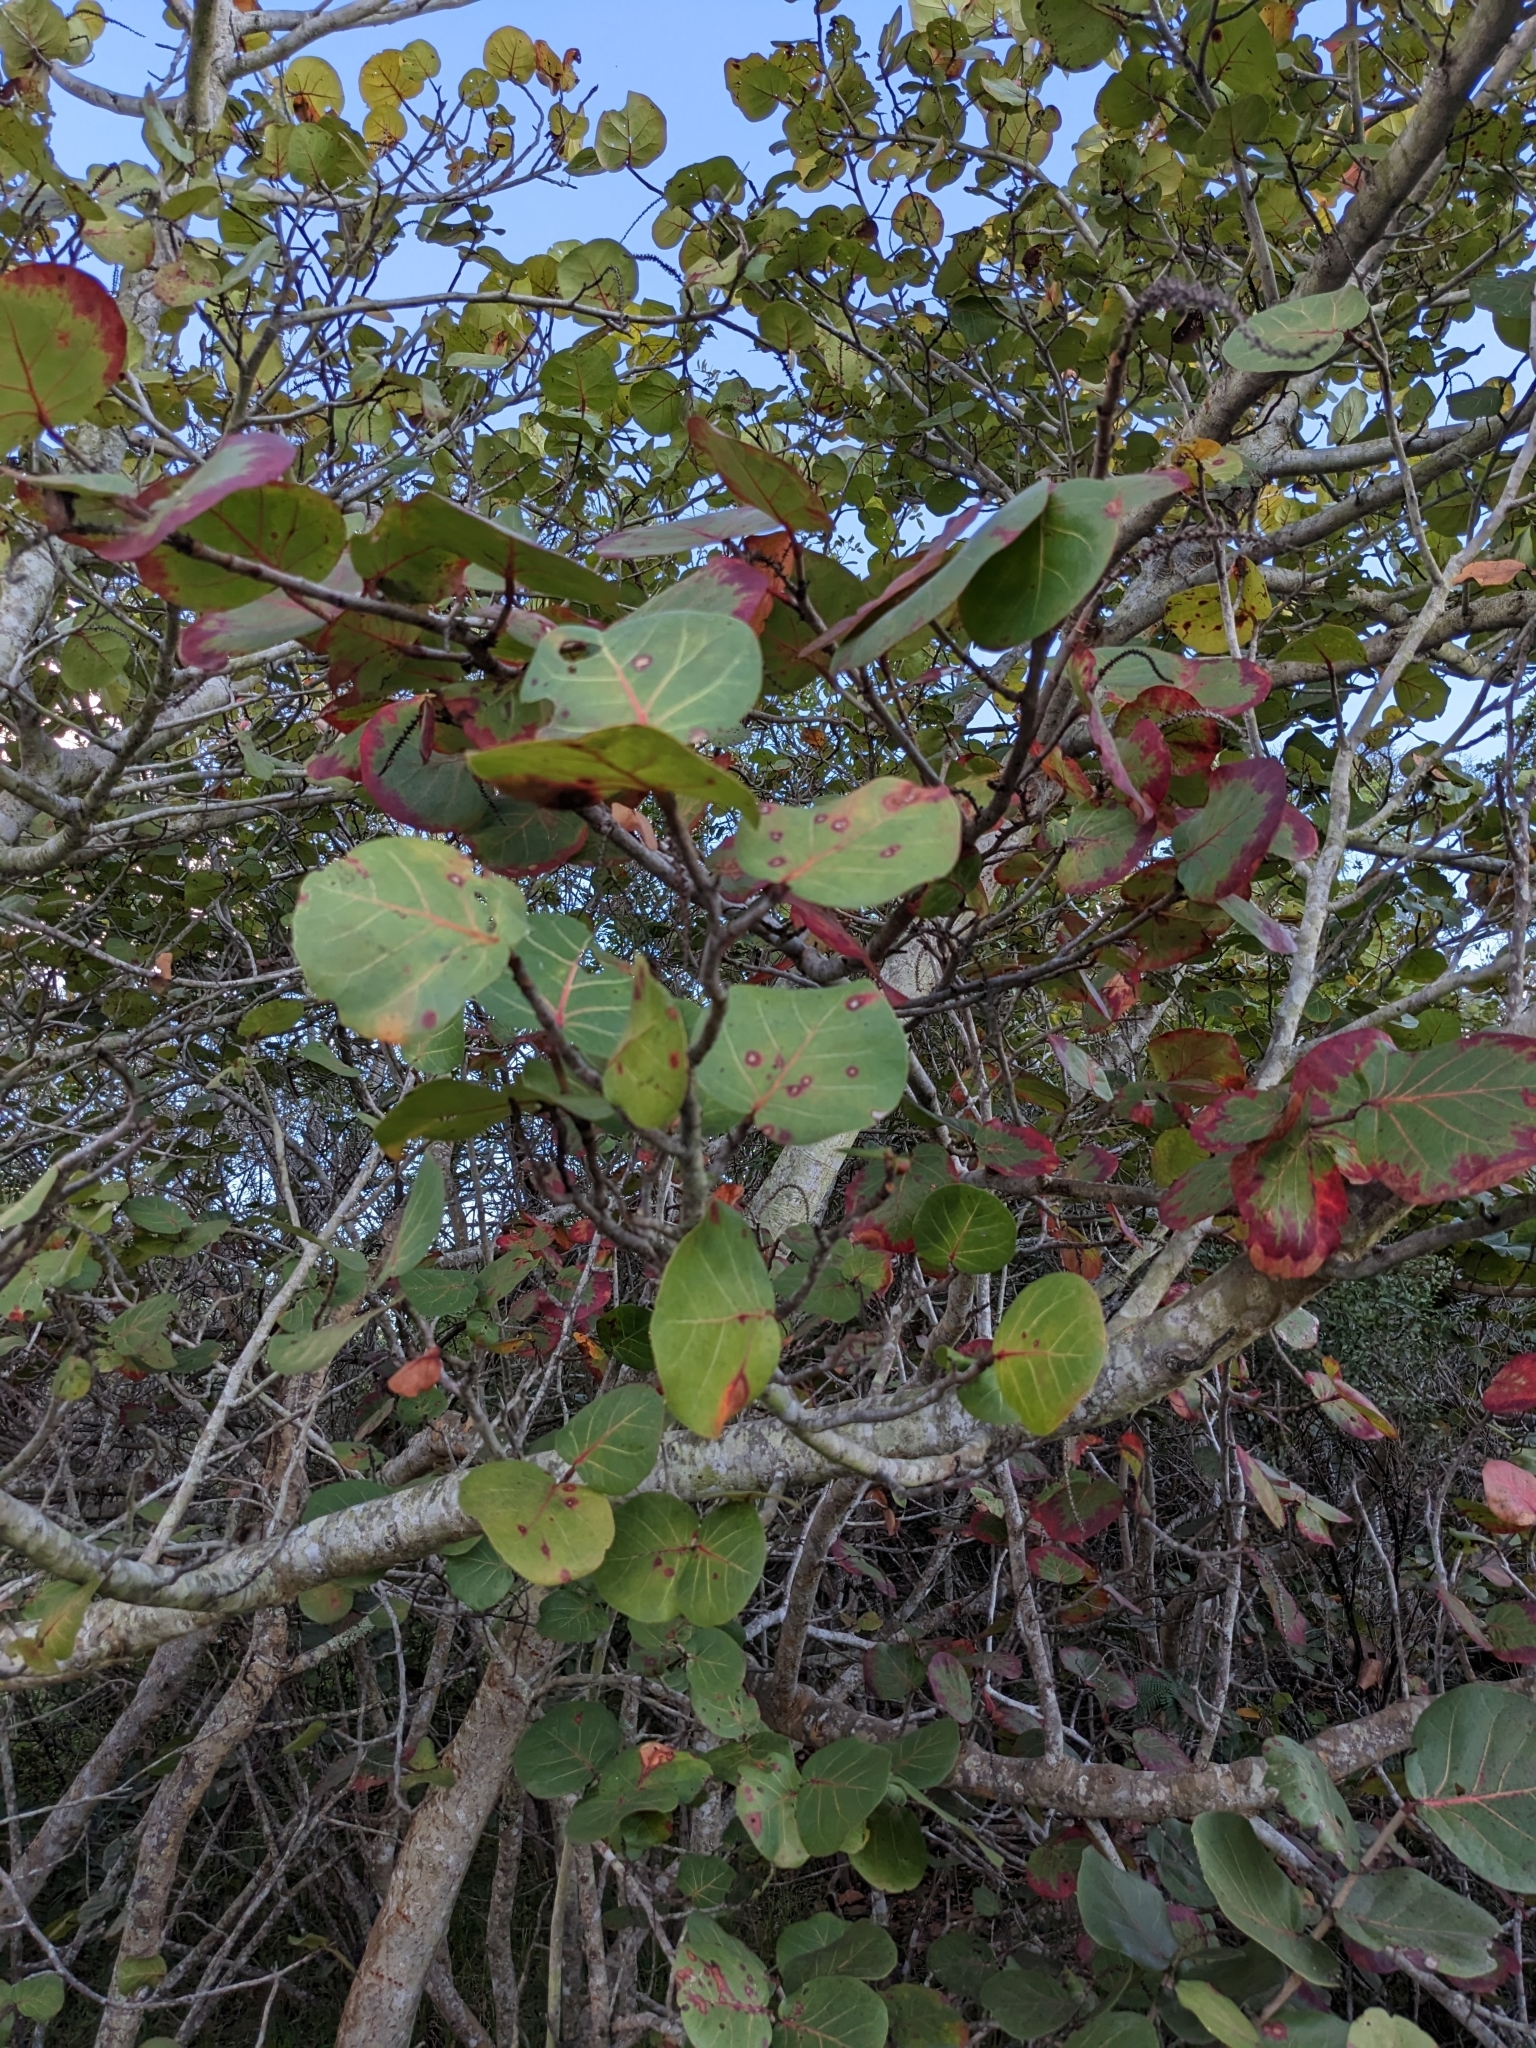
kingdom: Plantae
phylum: Tracheophyta
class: Magnoliopsida
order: Caryophyllales
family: Polygonaceae
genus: Coccoloba
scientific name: Coccoloba uvifera
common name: Seagrape
